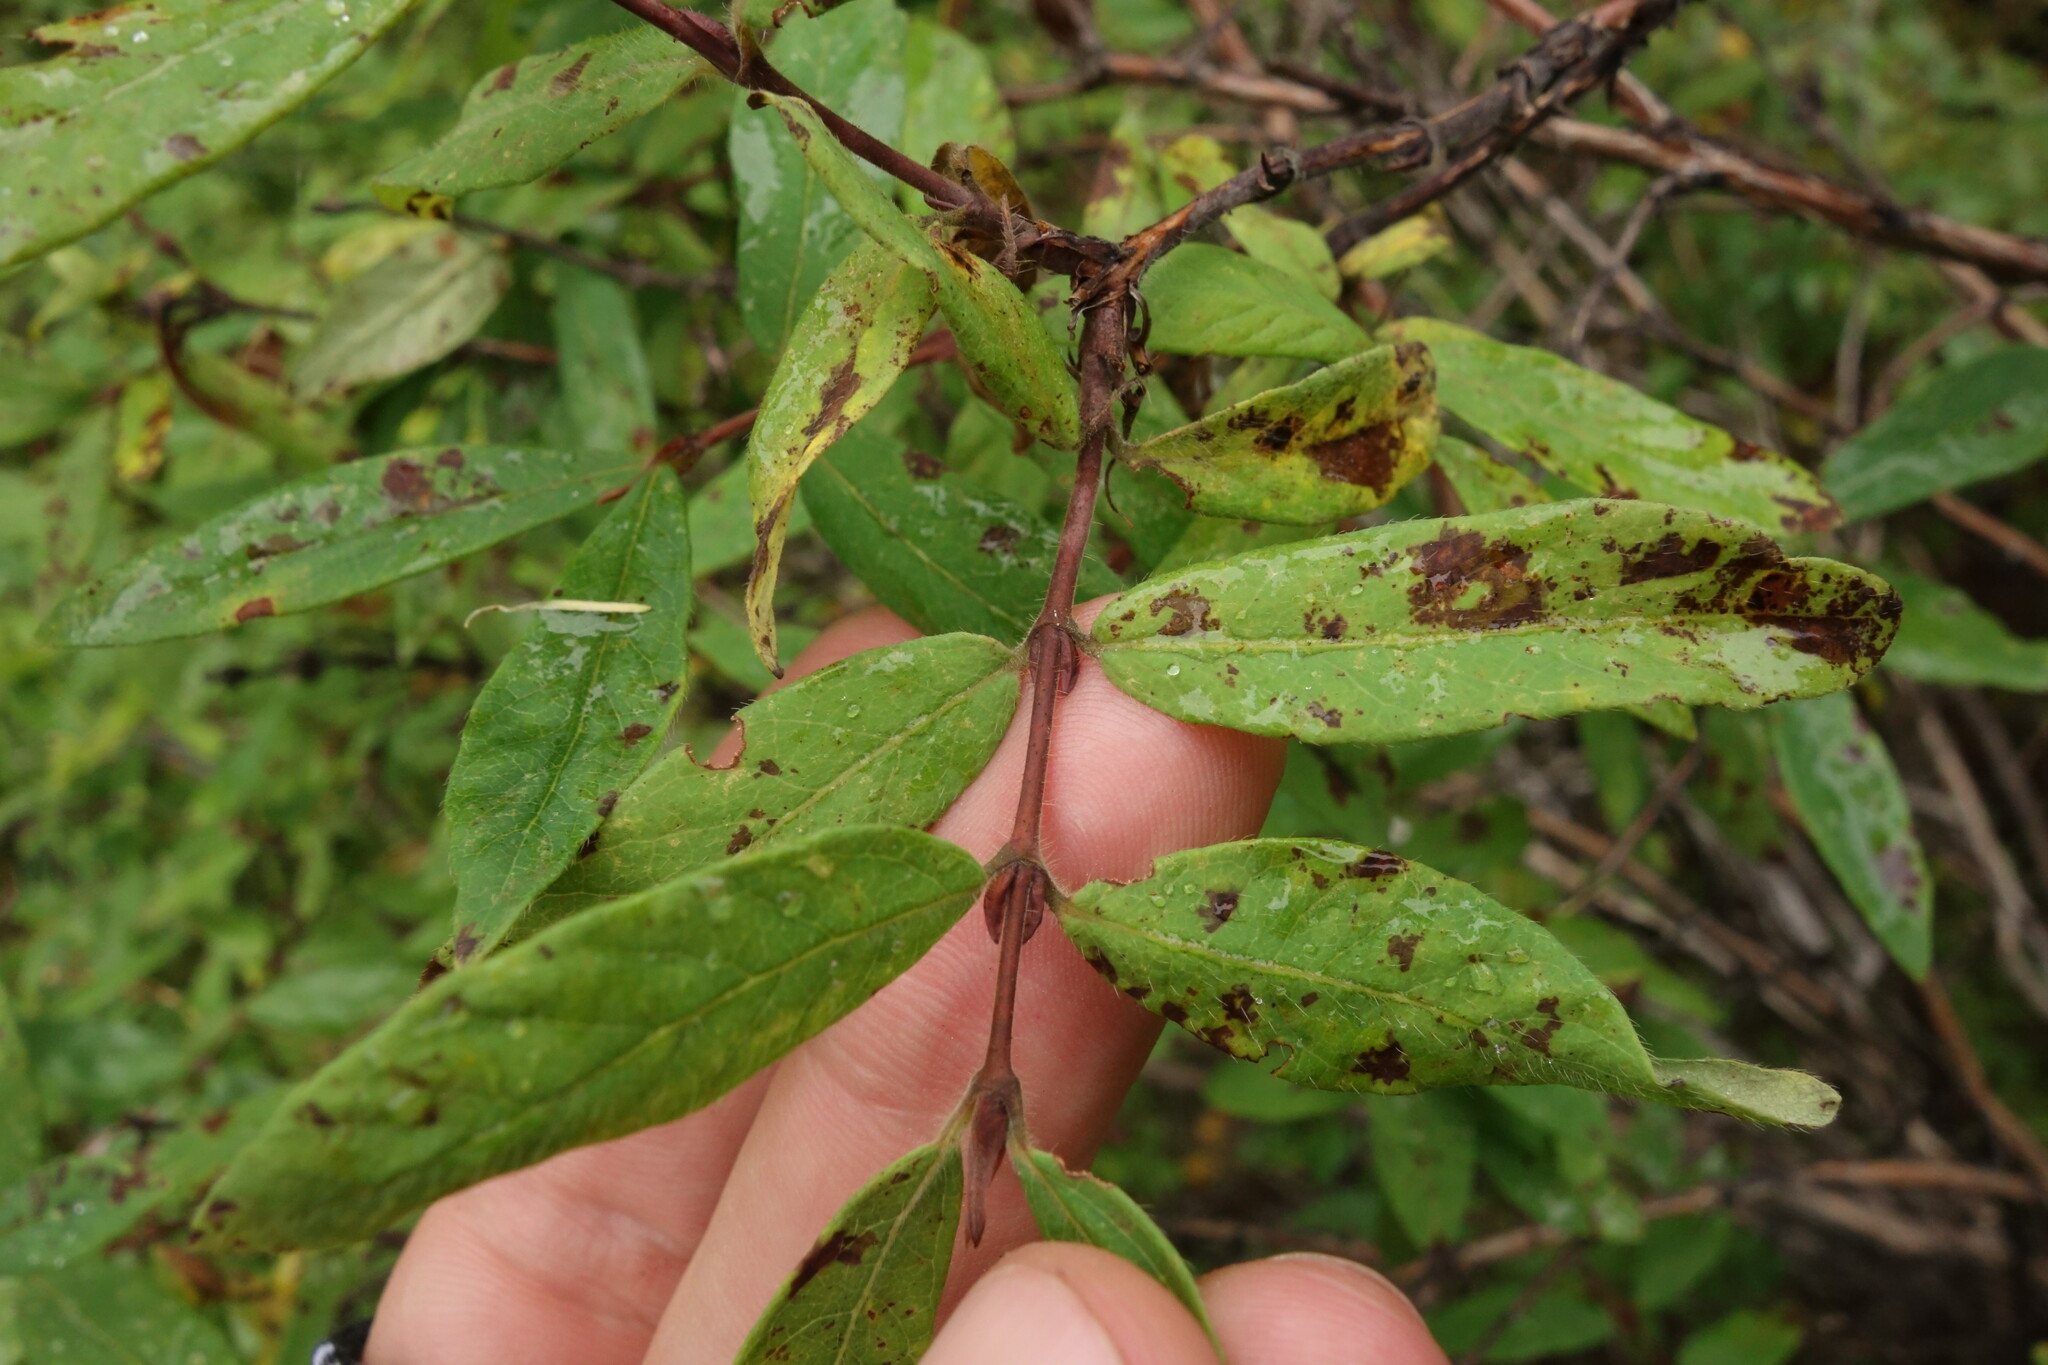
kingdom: Plantae
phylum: Tracheophyta
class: Magnoliopsida
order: Dipsacales
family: Caprifoliaceae
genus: Lonicera
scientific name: Lonicera caerulea
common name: Blue honeysuckle
